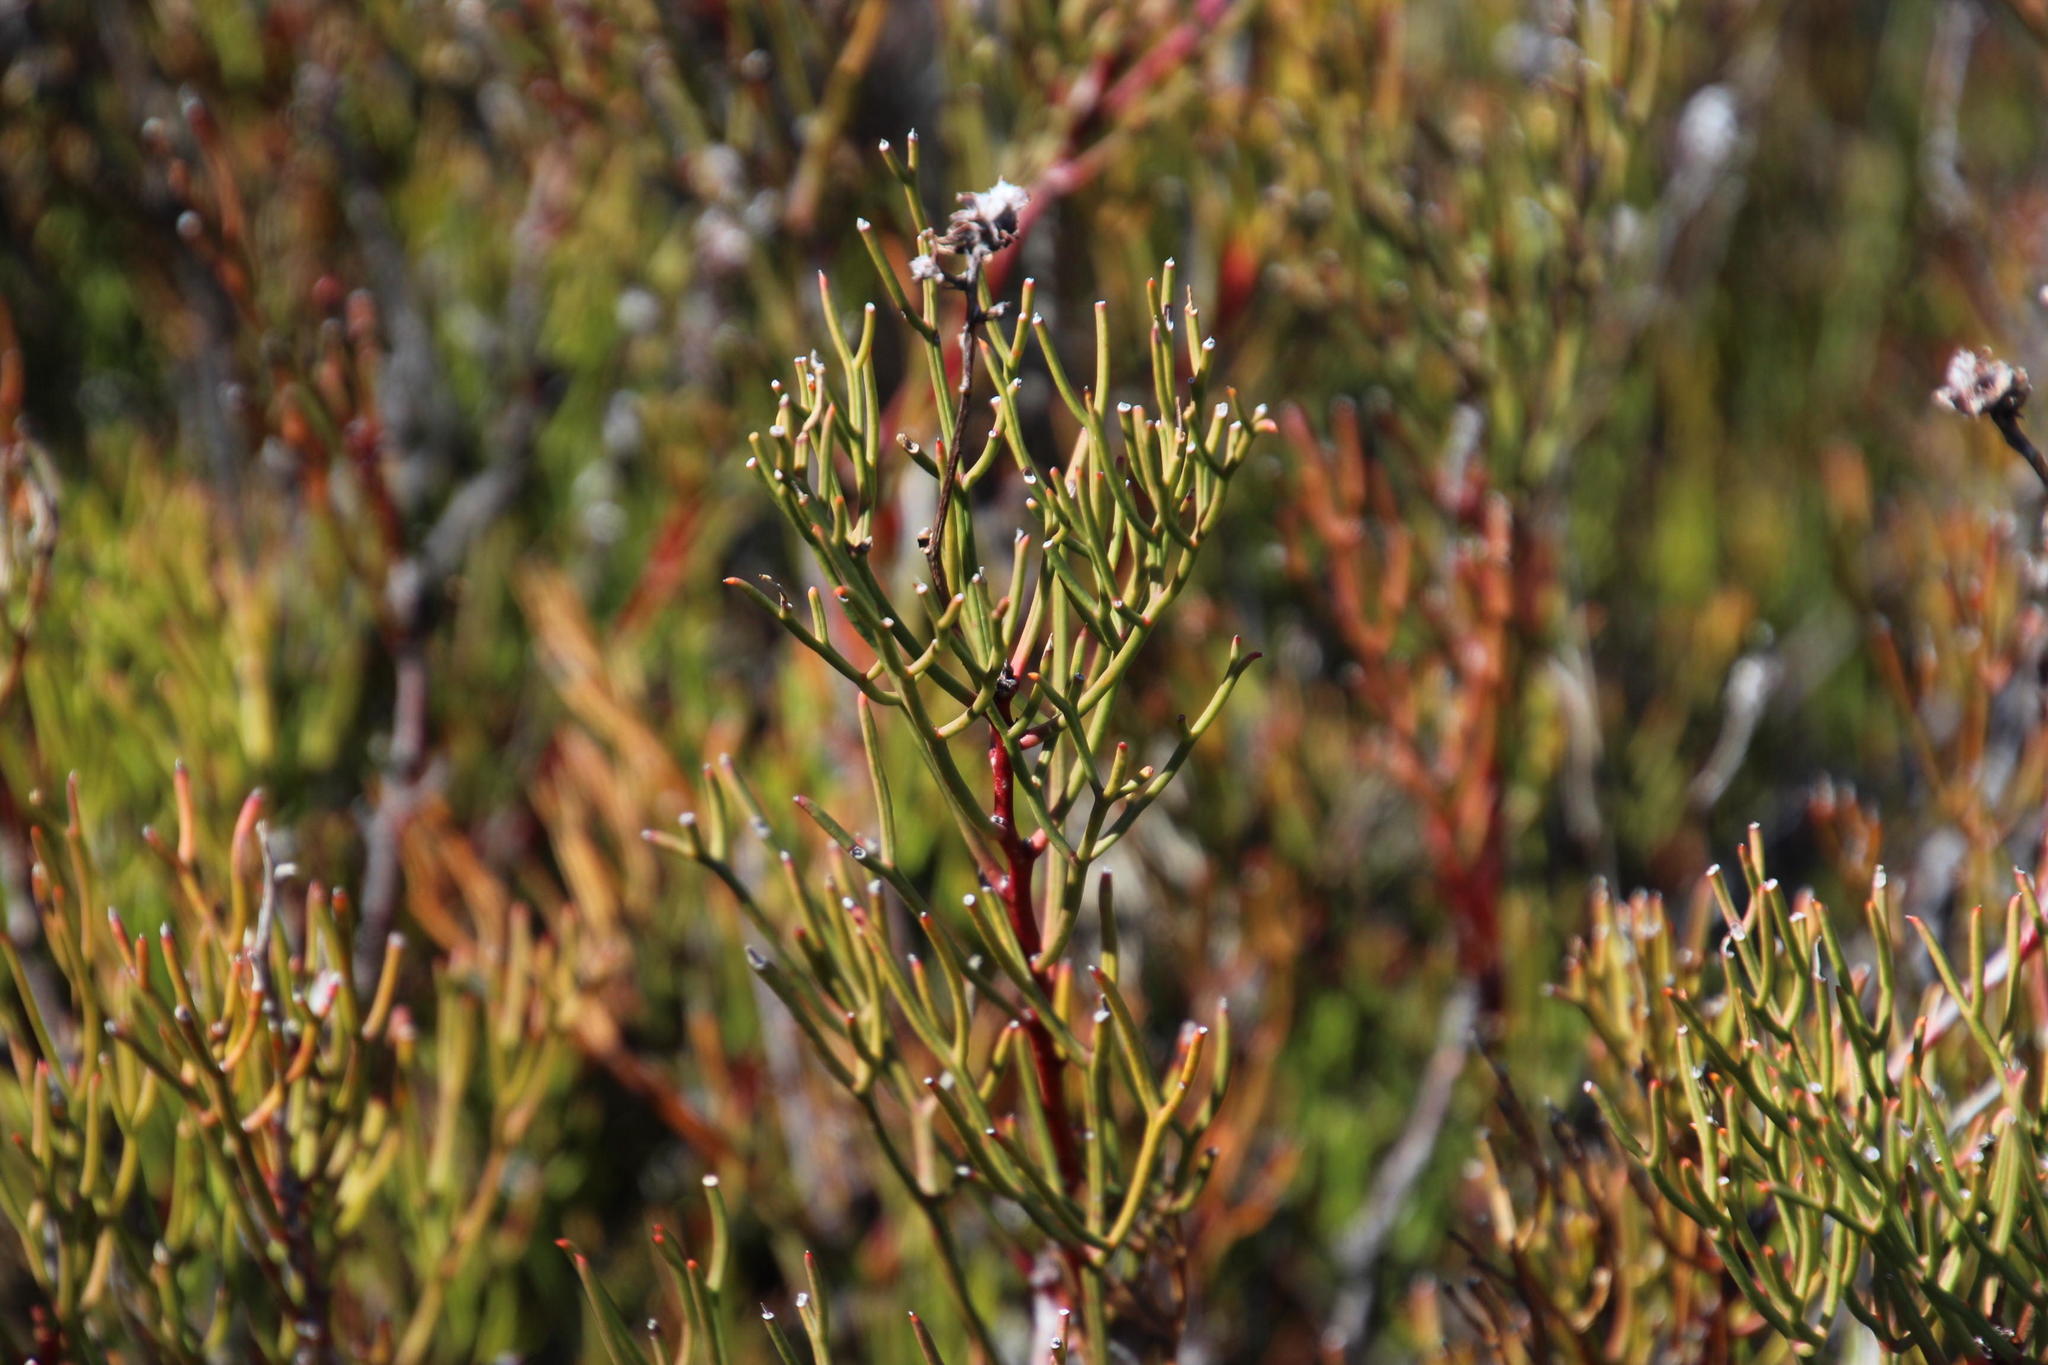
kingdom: Plantae
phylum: Tracheophyta
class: Magnoliopsida
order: Proteales
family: Proteaceae
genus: Serruria
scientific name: Serruria leipoldtii
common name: Leipoldt's spiderhead
